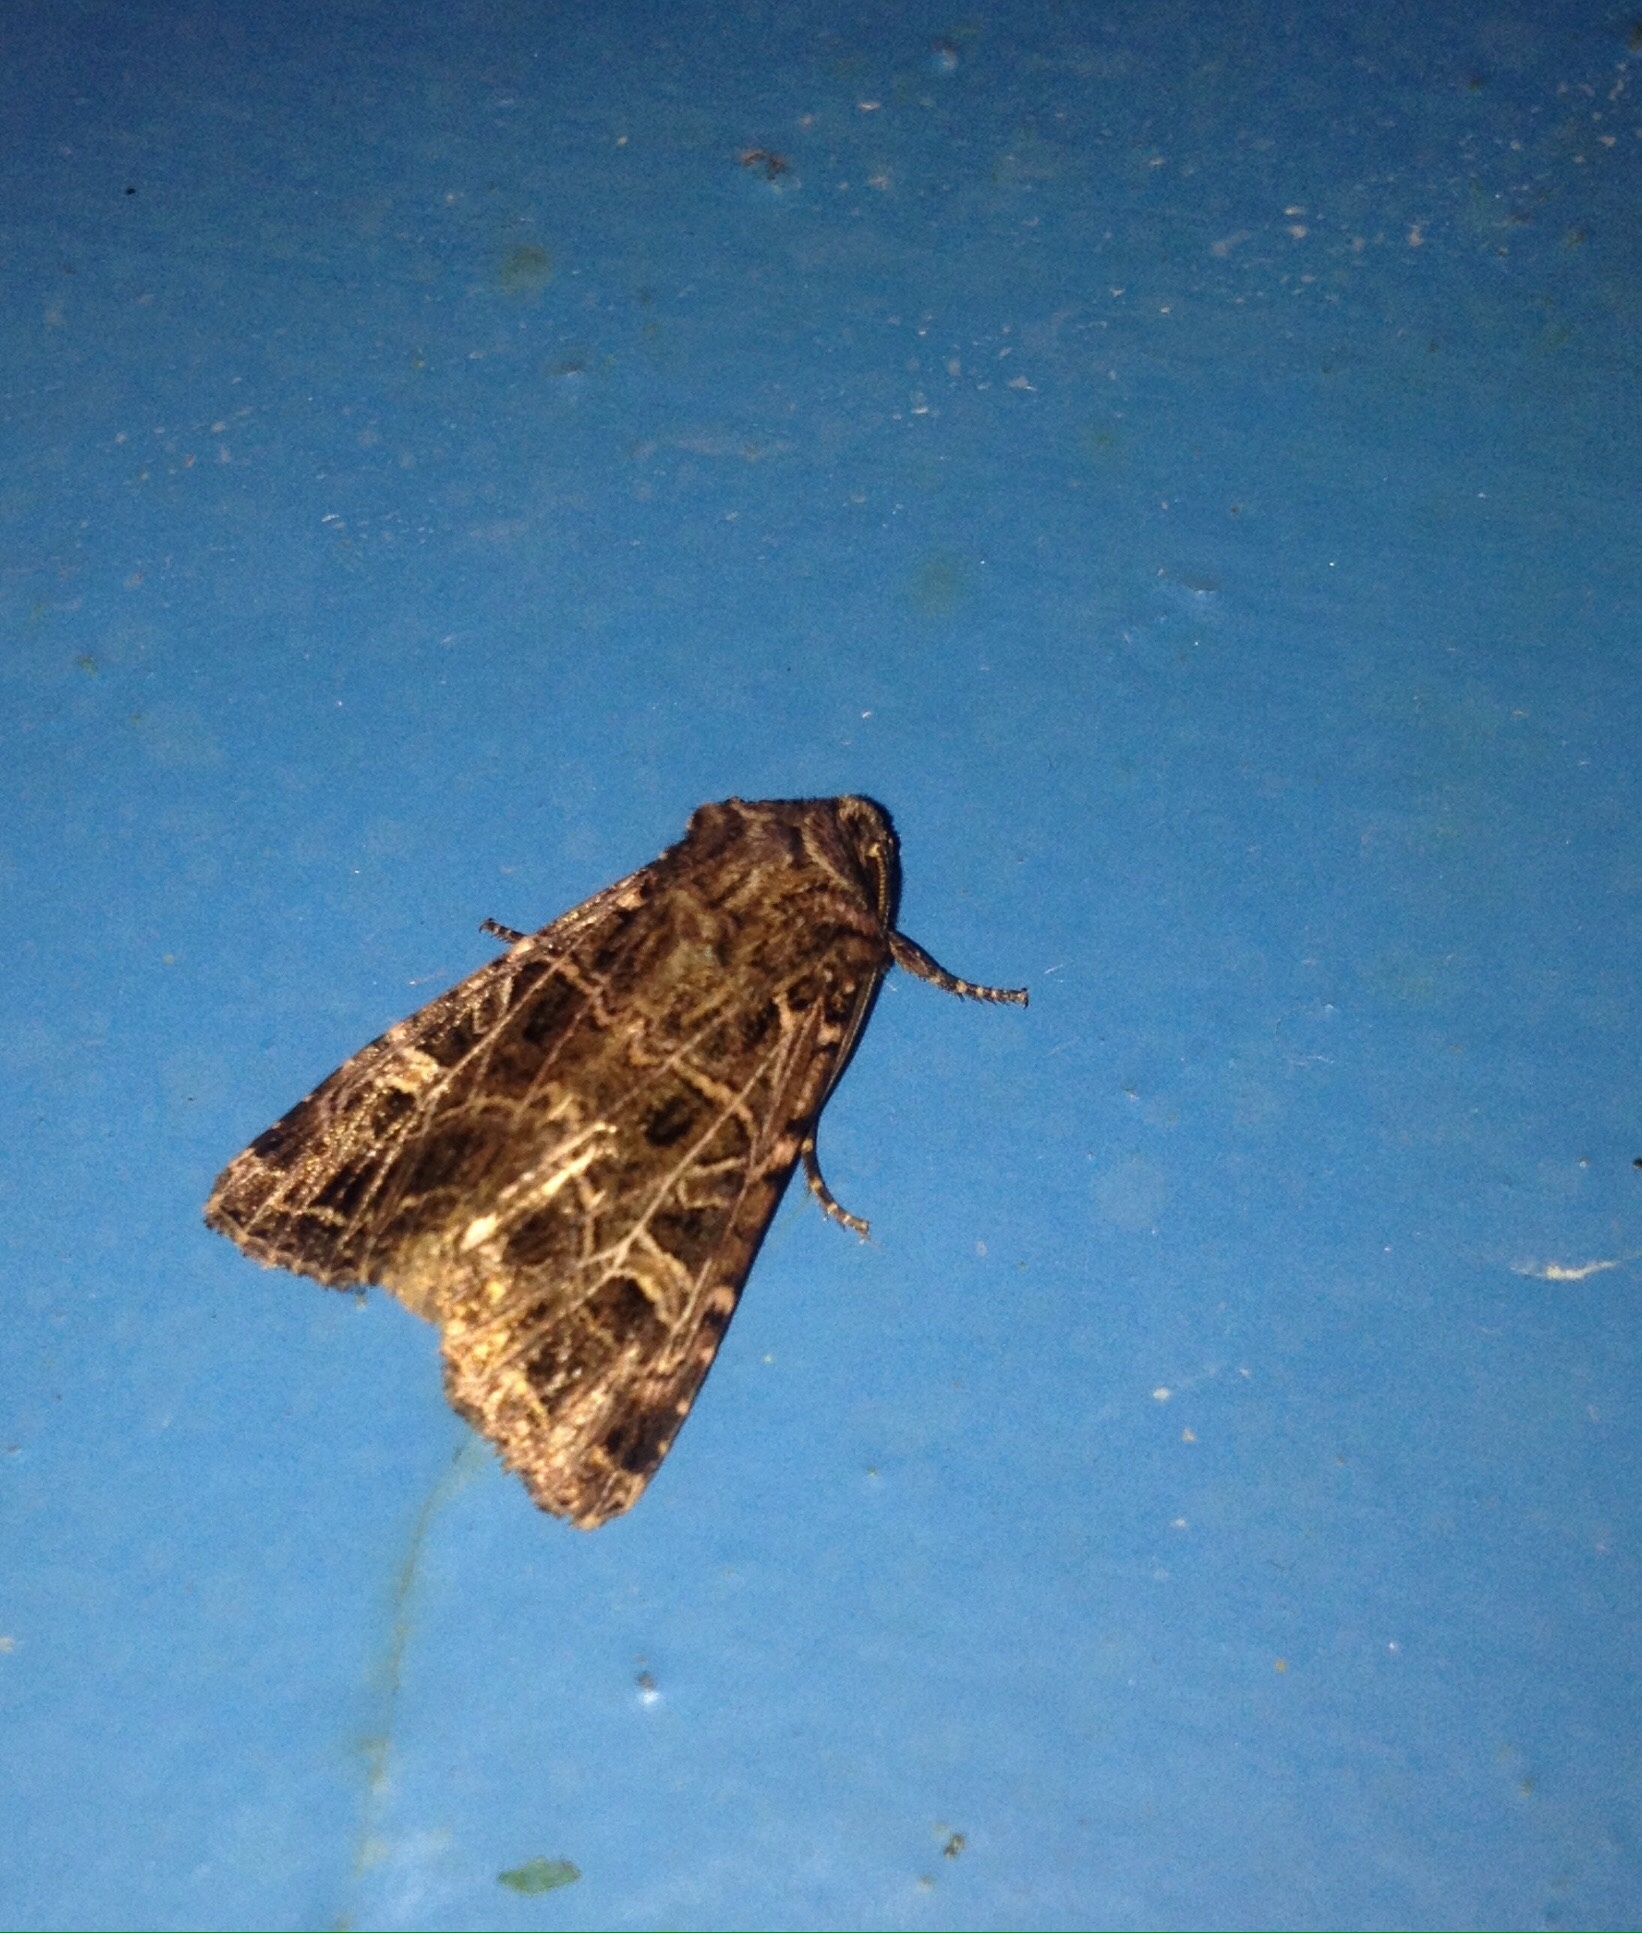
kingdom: Animalia
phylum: Arthropoda
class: Insecta
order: Lepidoptera
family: Noctuidae
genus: Sideridis
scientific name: Sideridis reticulata
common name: Bordered gothic
